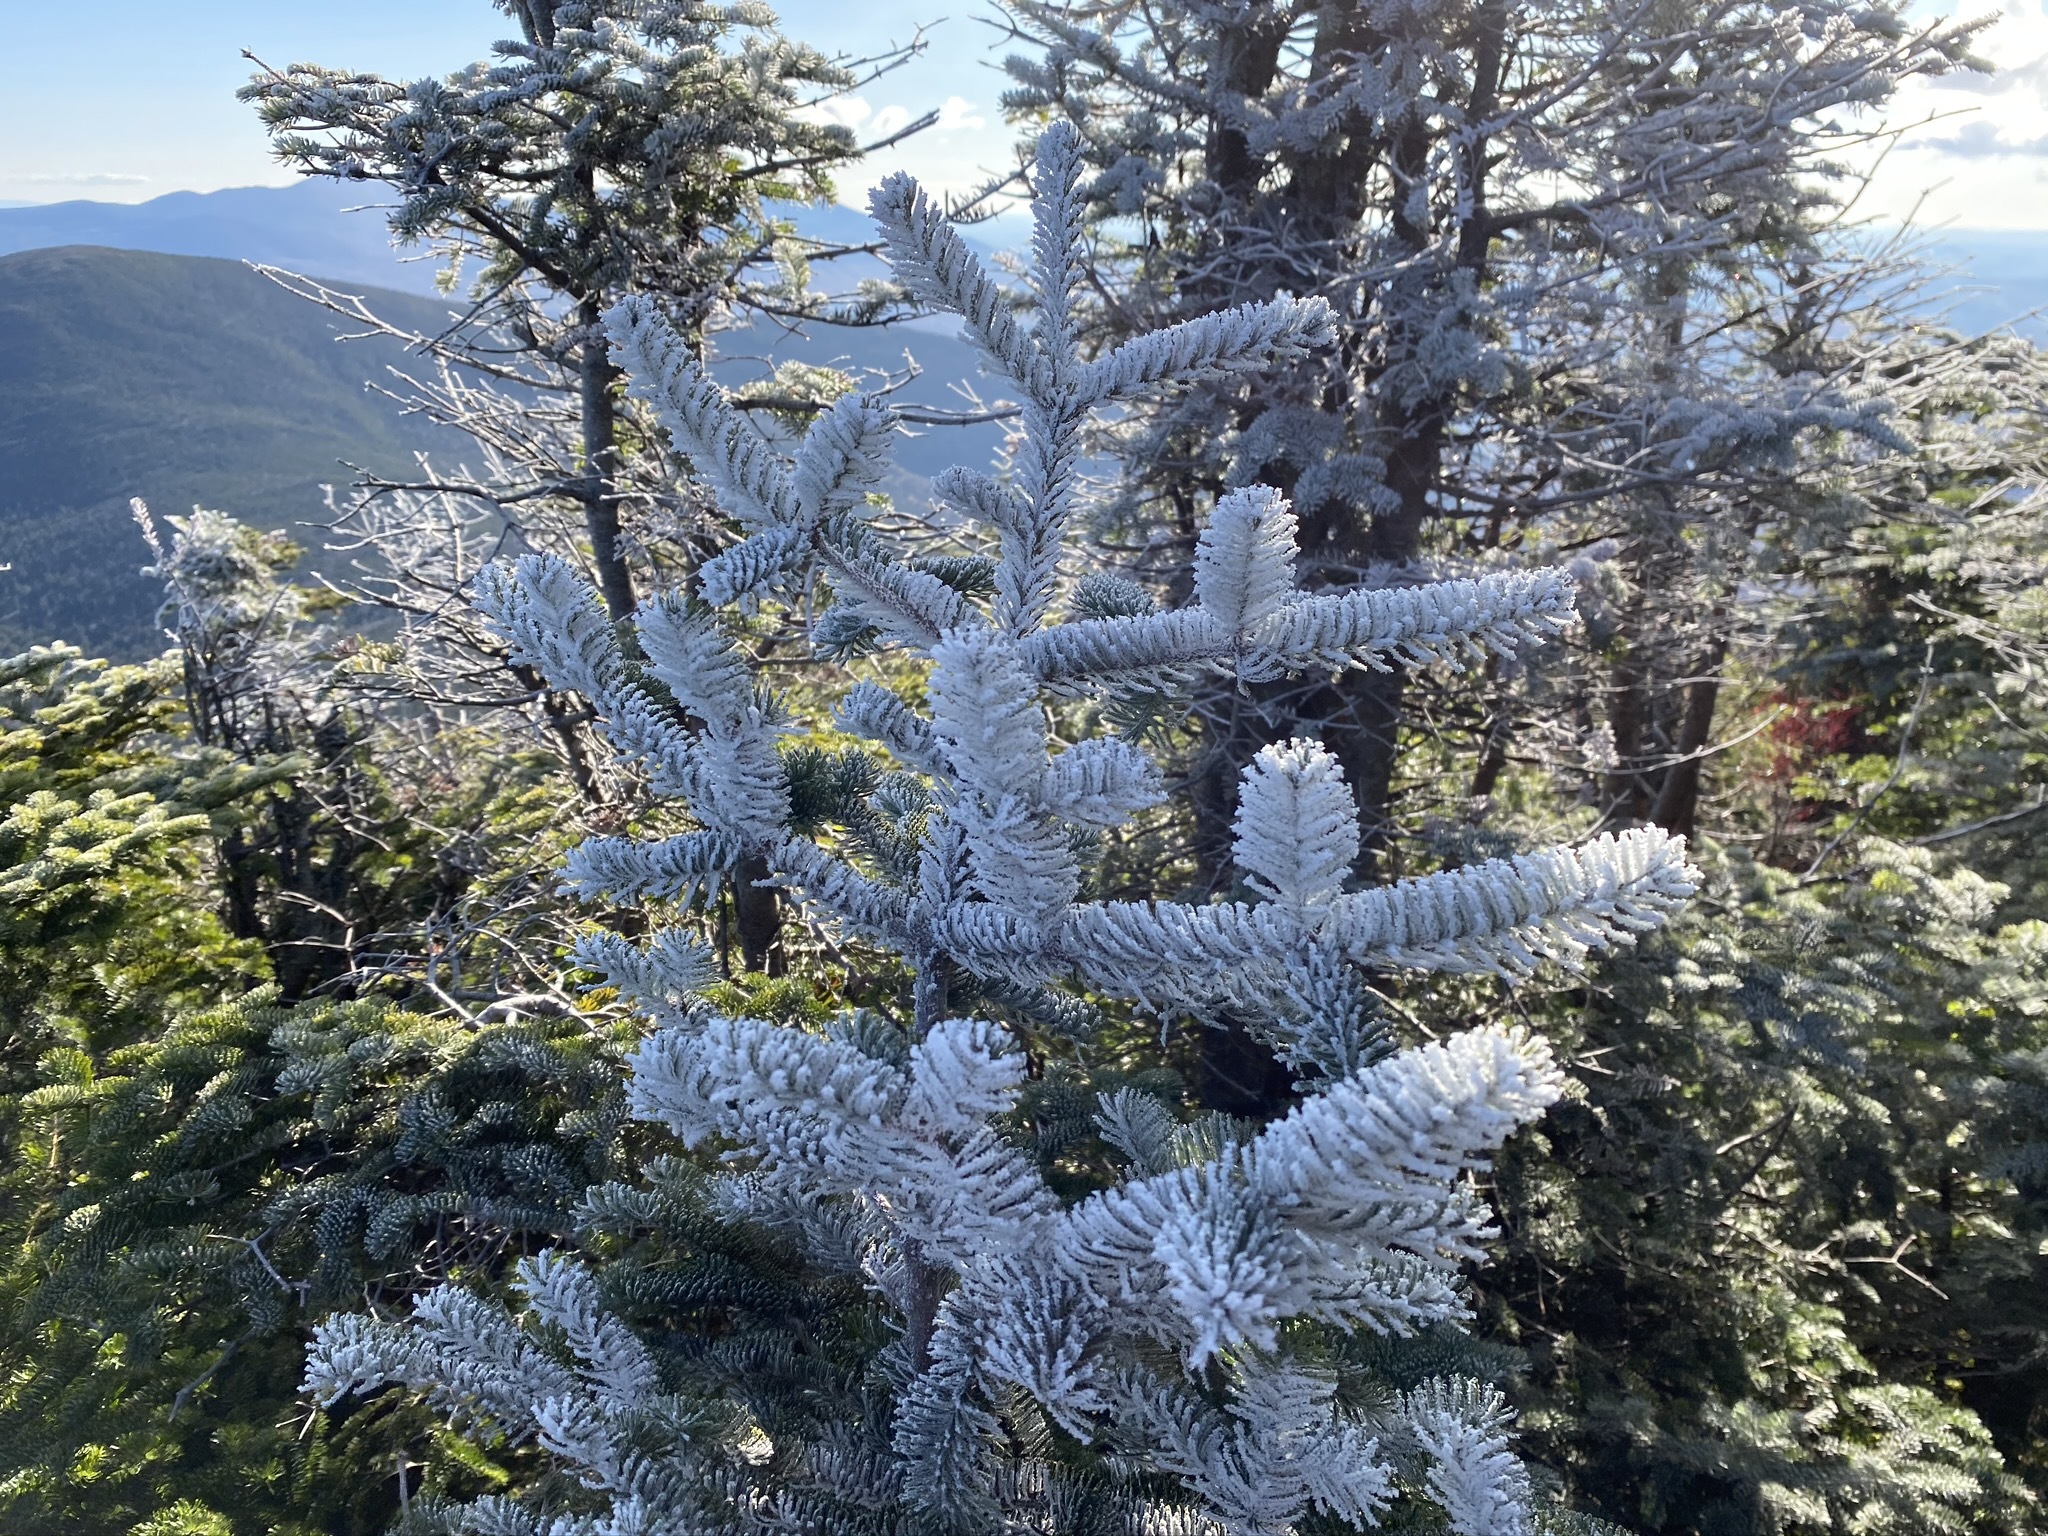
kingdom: Plantae
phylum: Tracheophyta
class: Pinopsida
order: Pinales
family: Pinaceae
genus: Abies
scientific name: Abies balsamea
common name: Balsam fir
